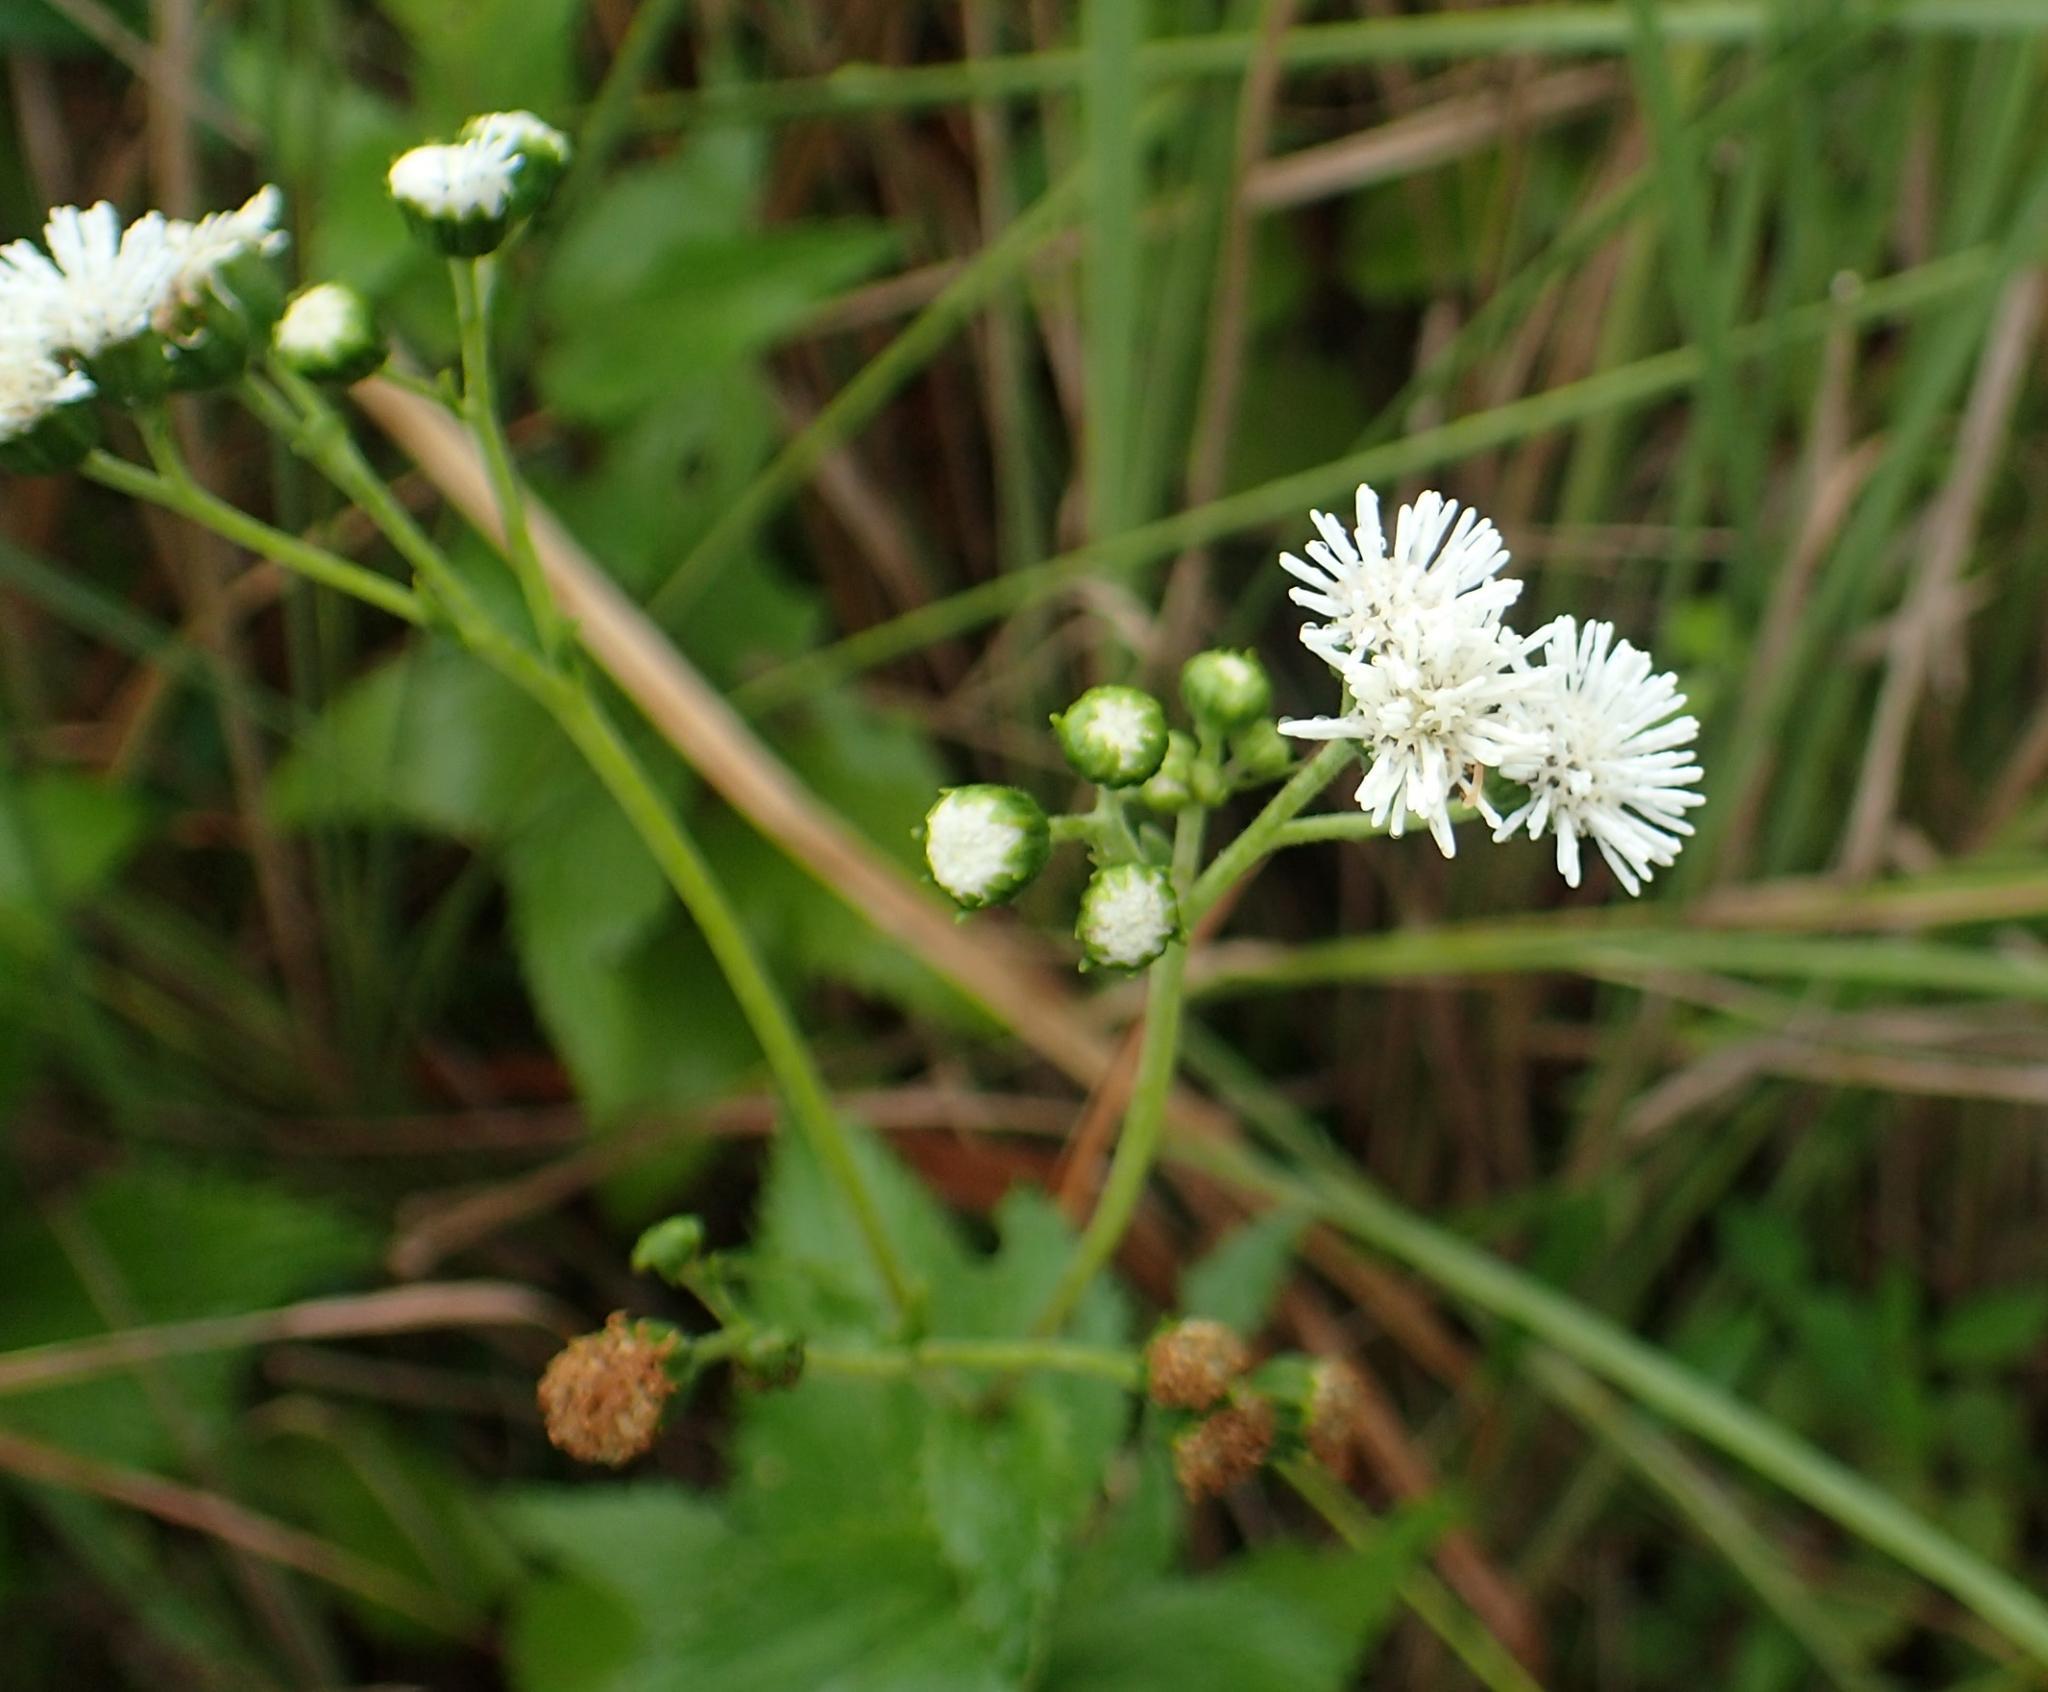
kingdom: Plantae
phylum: Tracheophyta
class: Magnoliopsida
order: Asterales
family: Asteraceae
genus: Adenostemma
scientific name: Adenostemma caffrum
